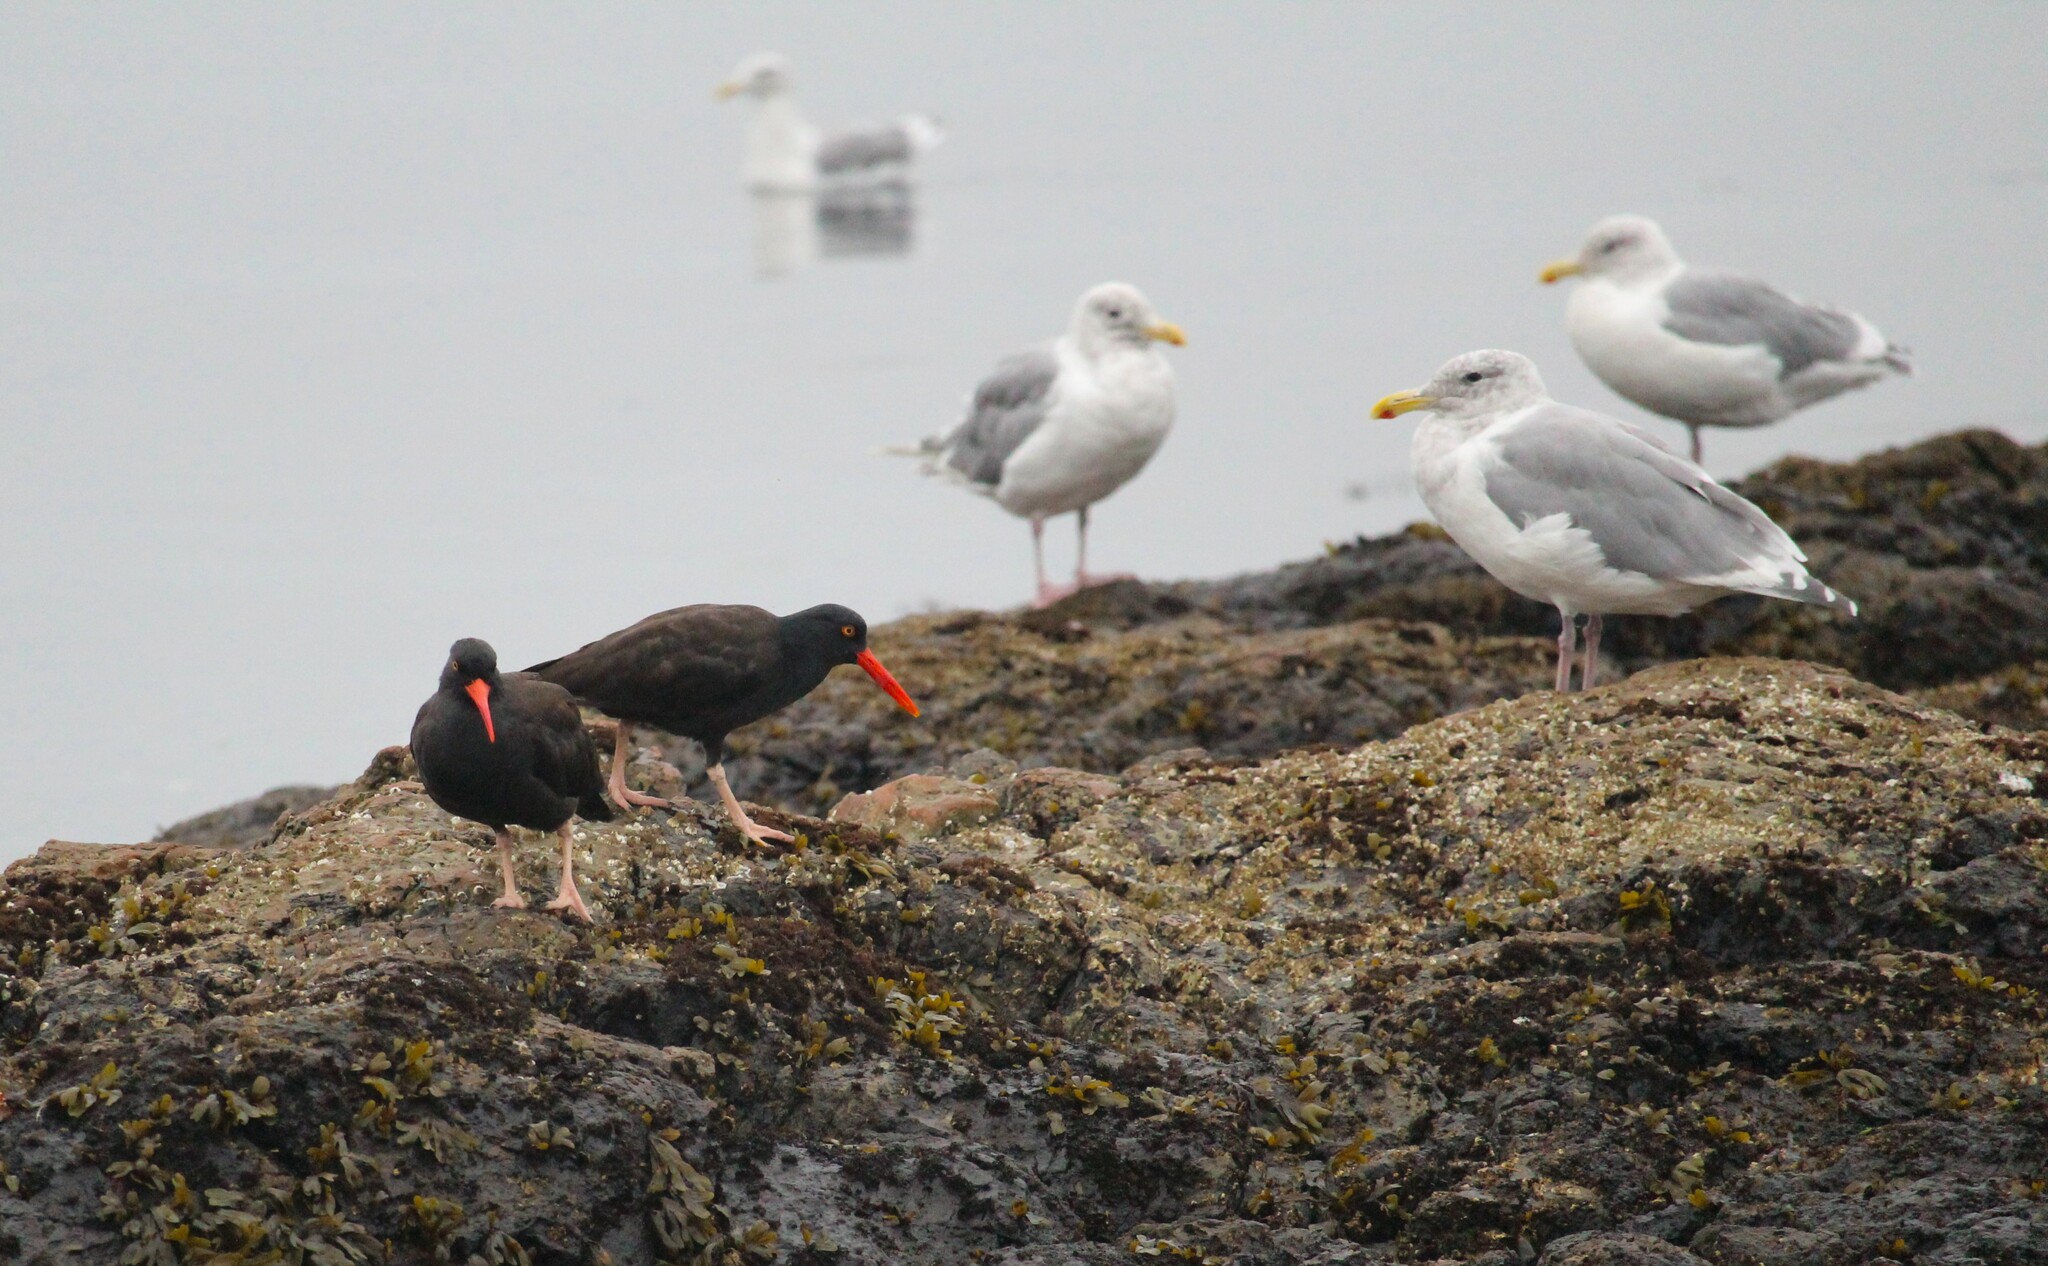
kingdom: Animalia
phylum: Chordata
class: Aves
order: Charadriiformes
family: Laridae
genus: Larus
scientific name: Larus glaucescens
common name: Glaucous-winged gull
